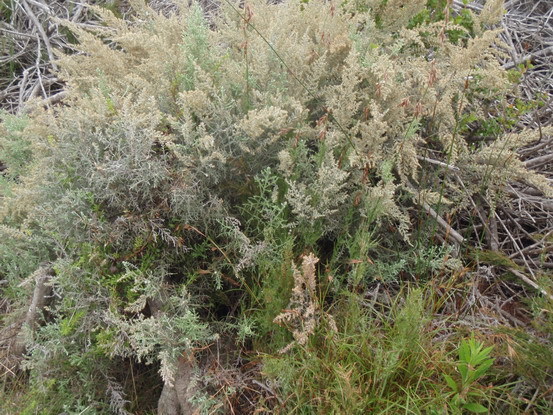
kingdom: Plantae
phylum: Tracheophyta
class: Magnoliopsida
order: Asterales
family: Asteraceae
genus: Seriphium
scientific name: Seriphium plumosum
